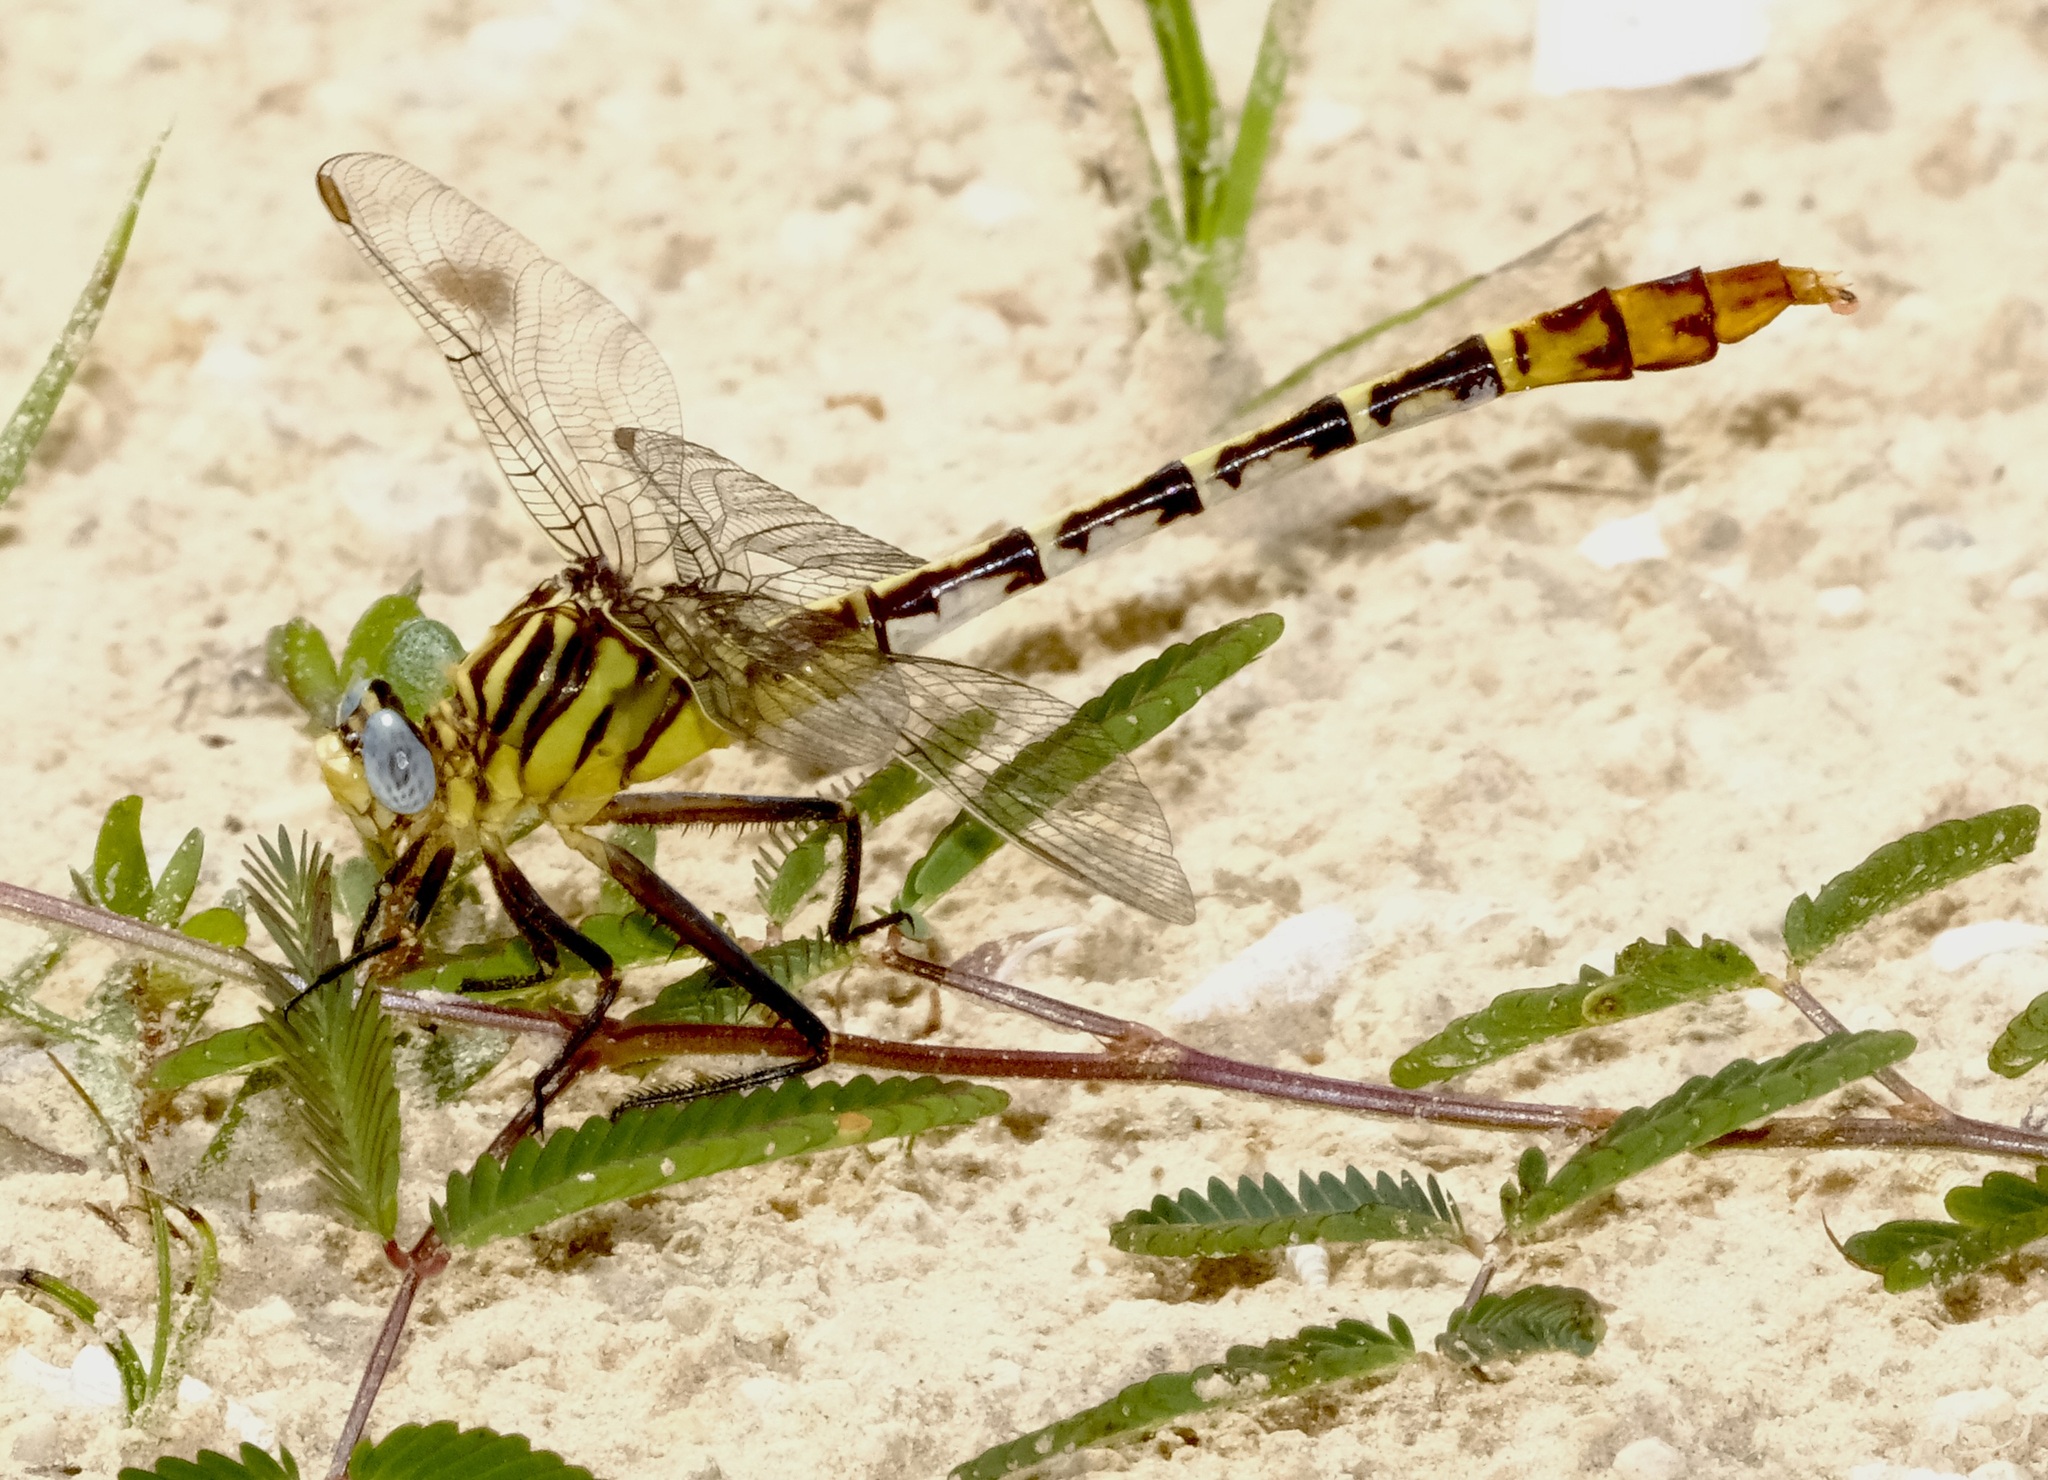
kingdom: Animalia
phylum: Arthropoda
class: Insecta
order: Odonata
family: Gomphidae
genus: Dromogomphus
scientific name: Dromogomphus spoliatus
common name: Flag-tailed spinyleg
